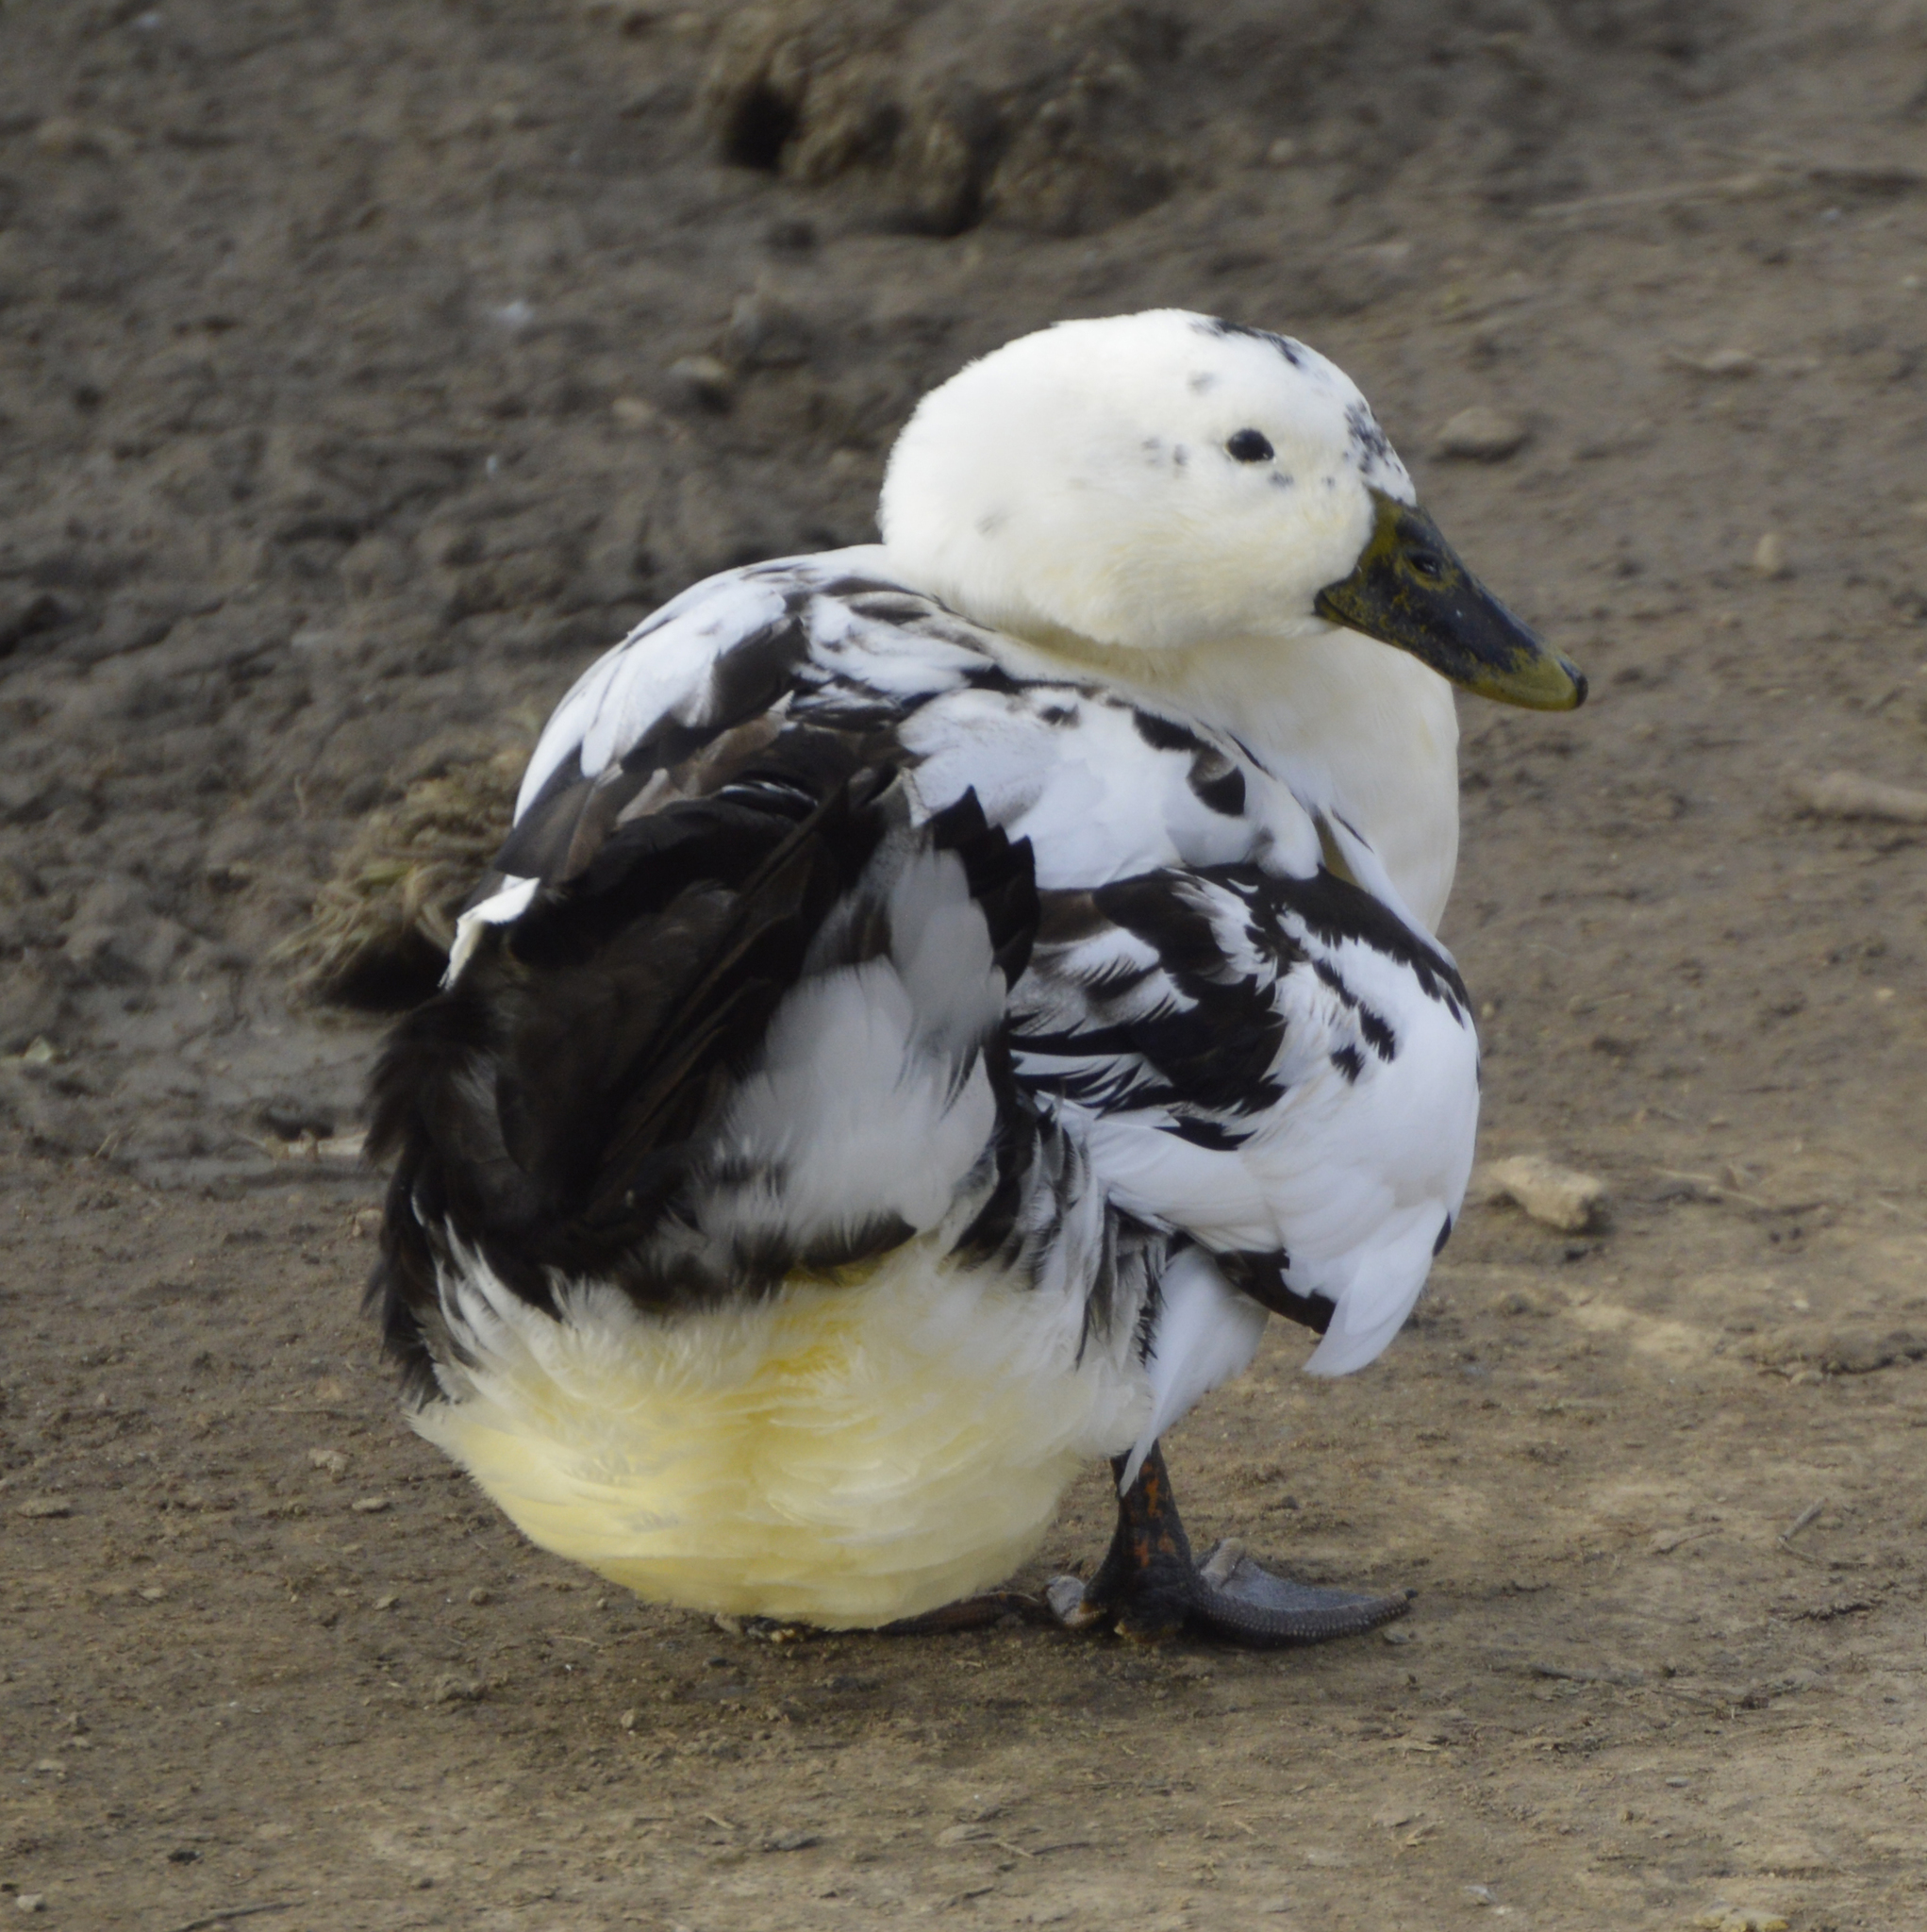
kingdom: Animalia
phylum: Chordata
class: Aves
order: Anseriformes
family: Anatidae
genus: Anas
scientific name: Anas platyrhynchos
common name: Mallard
